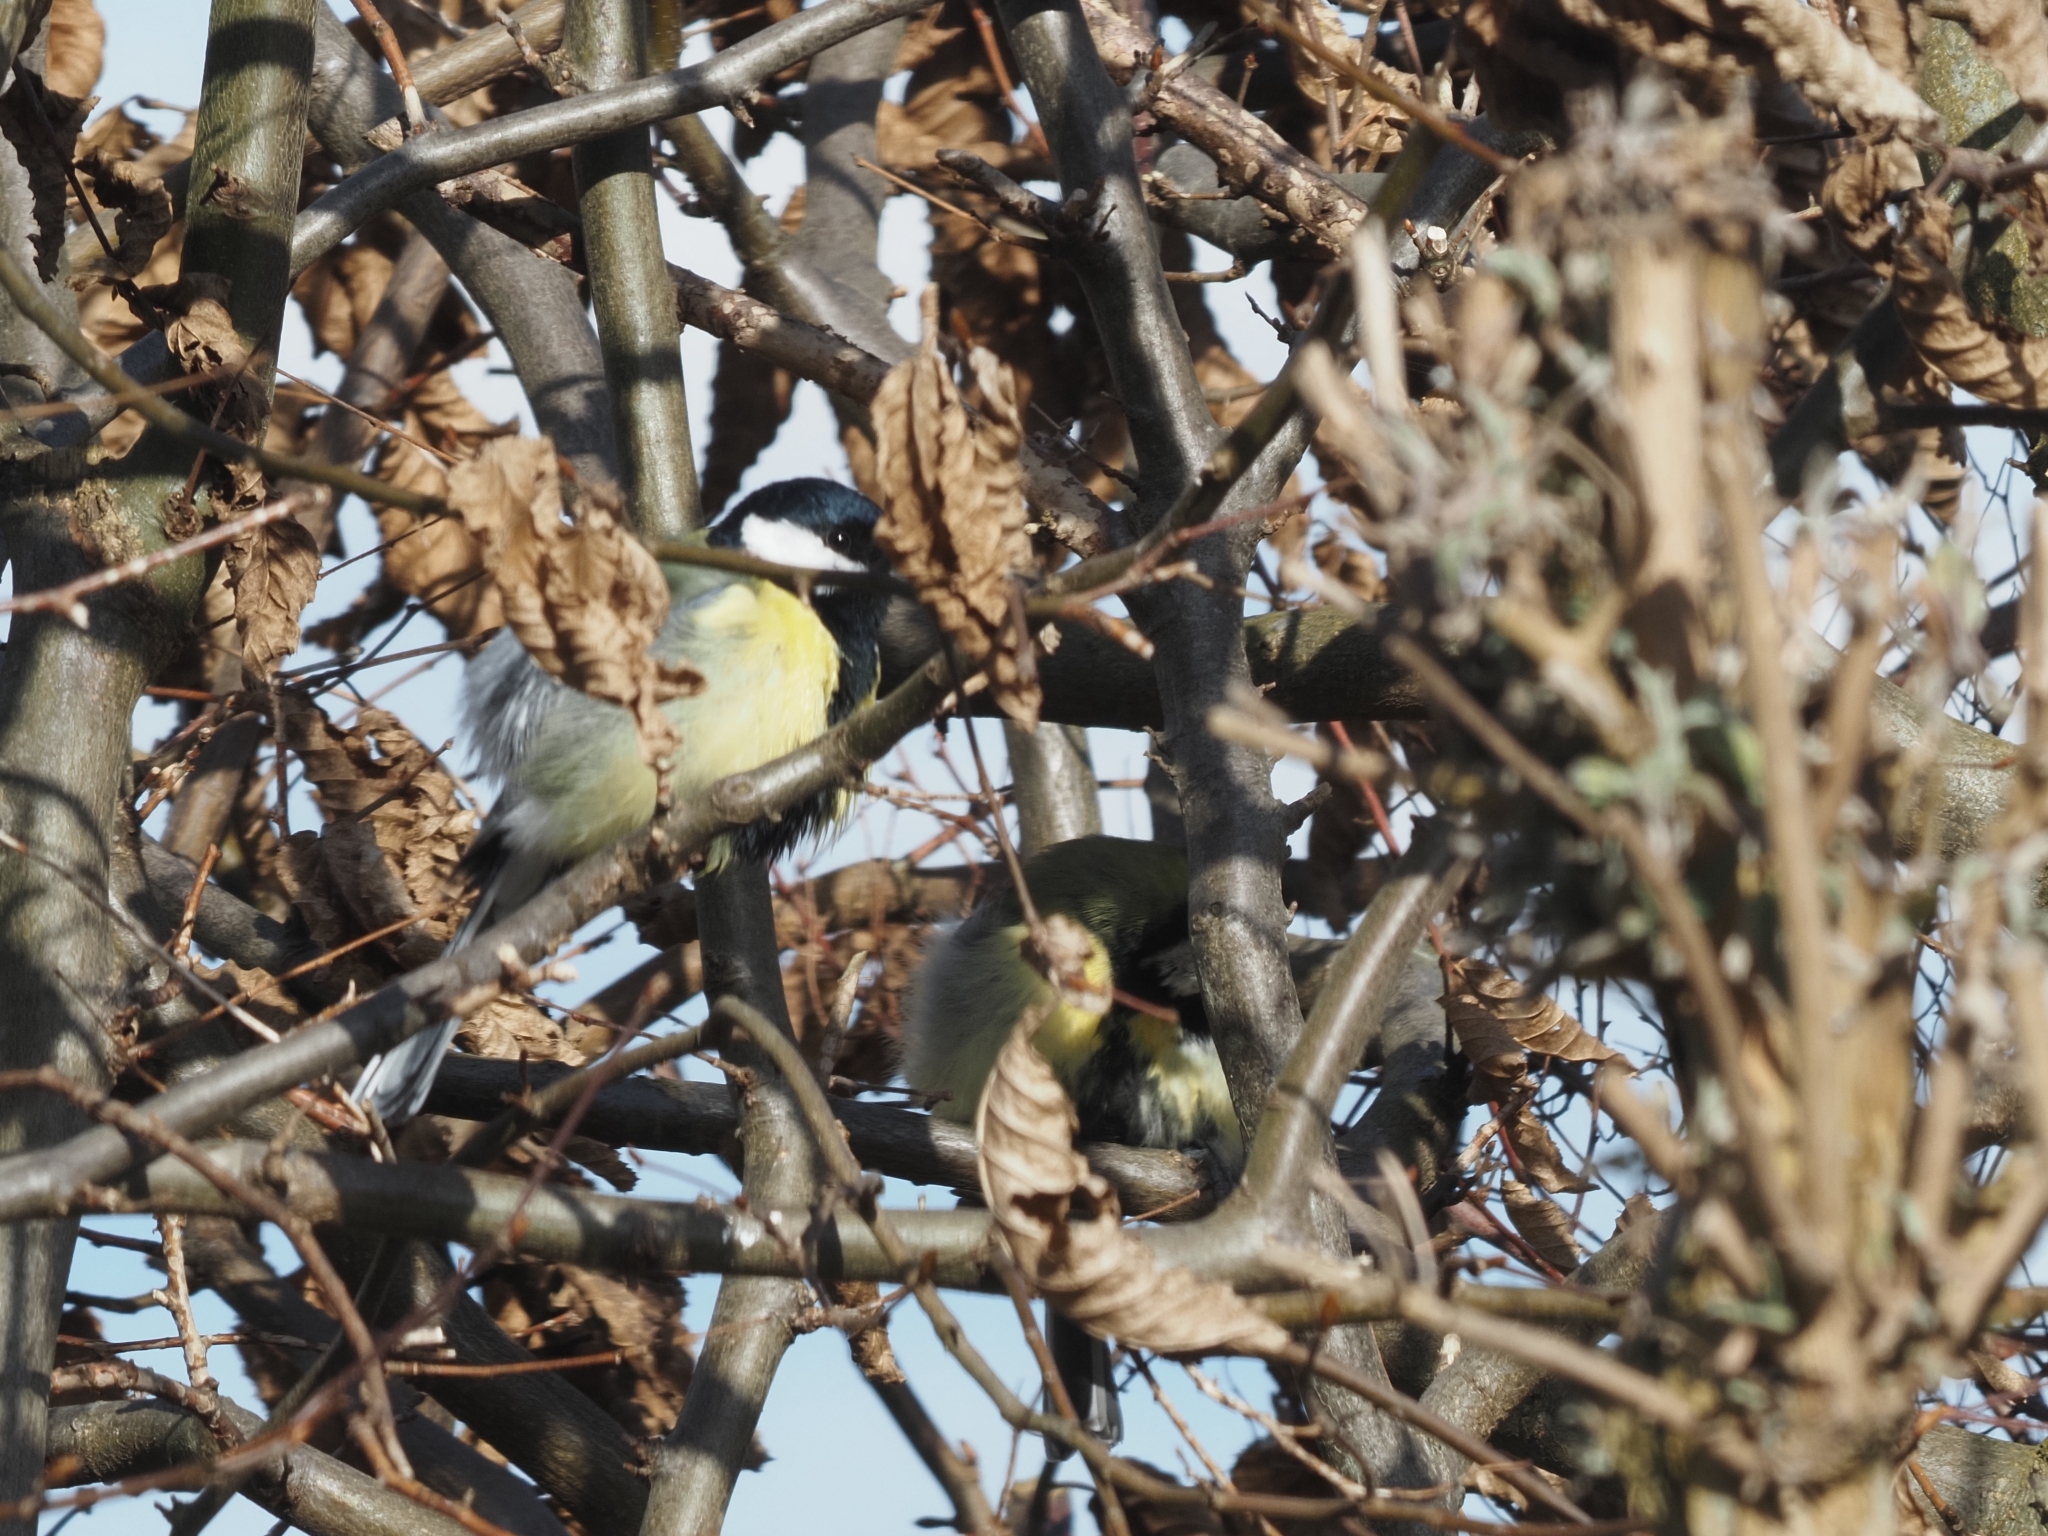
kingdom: Animalia
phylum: Chordata
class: Aves
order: Passeriformes
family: Paridae
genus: Parus
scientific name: Parus major
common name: Great tit
